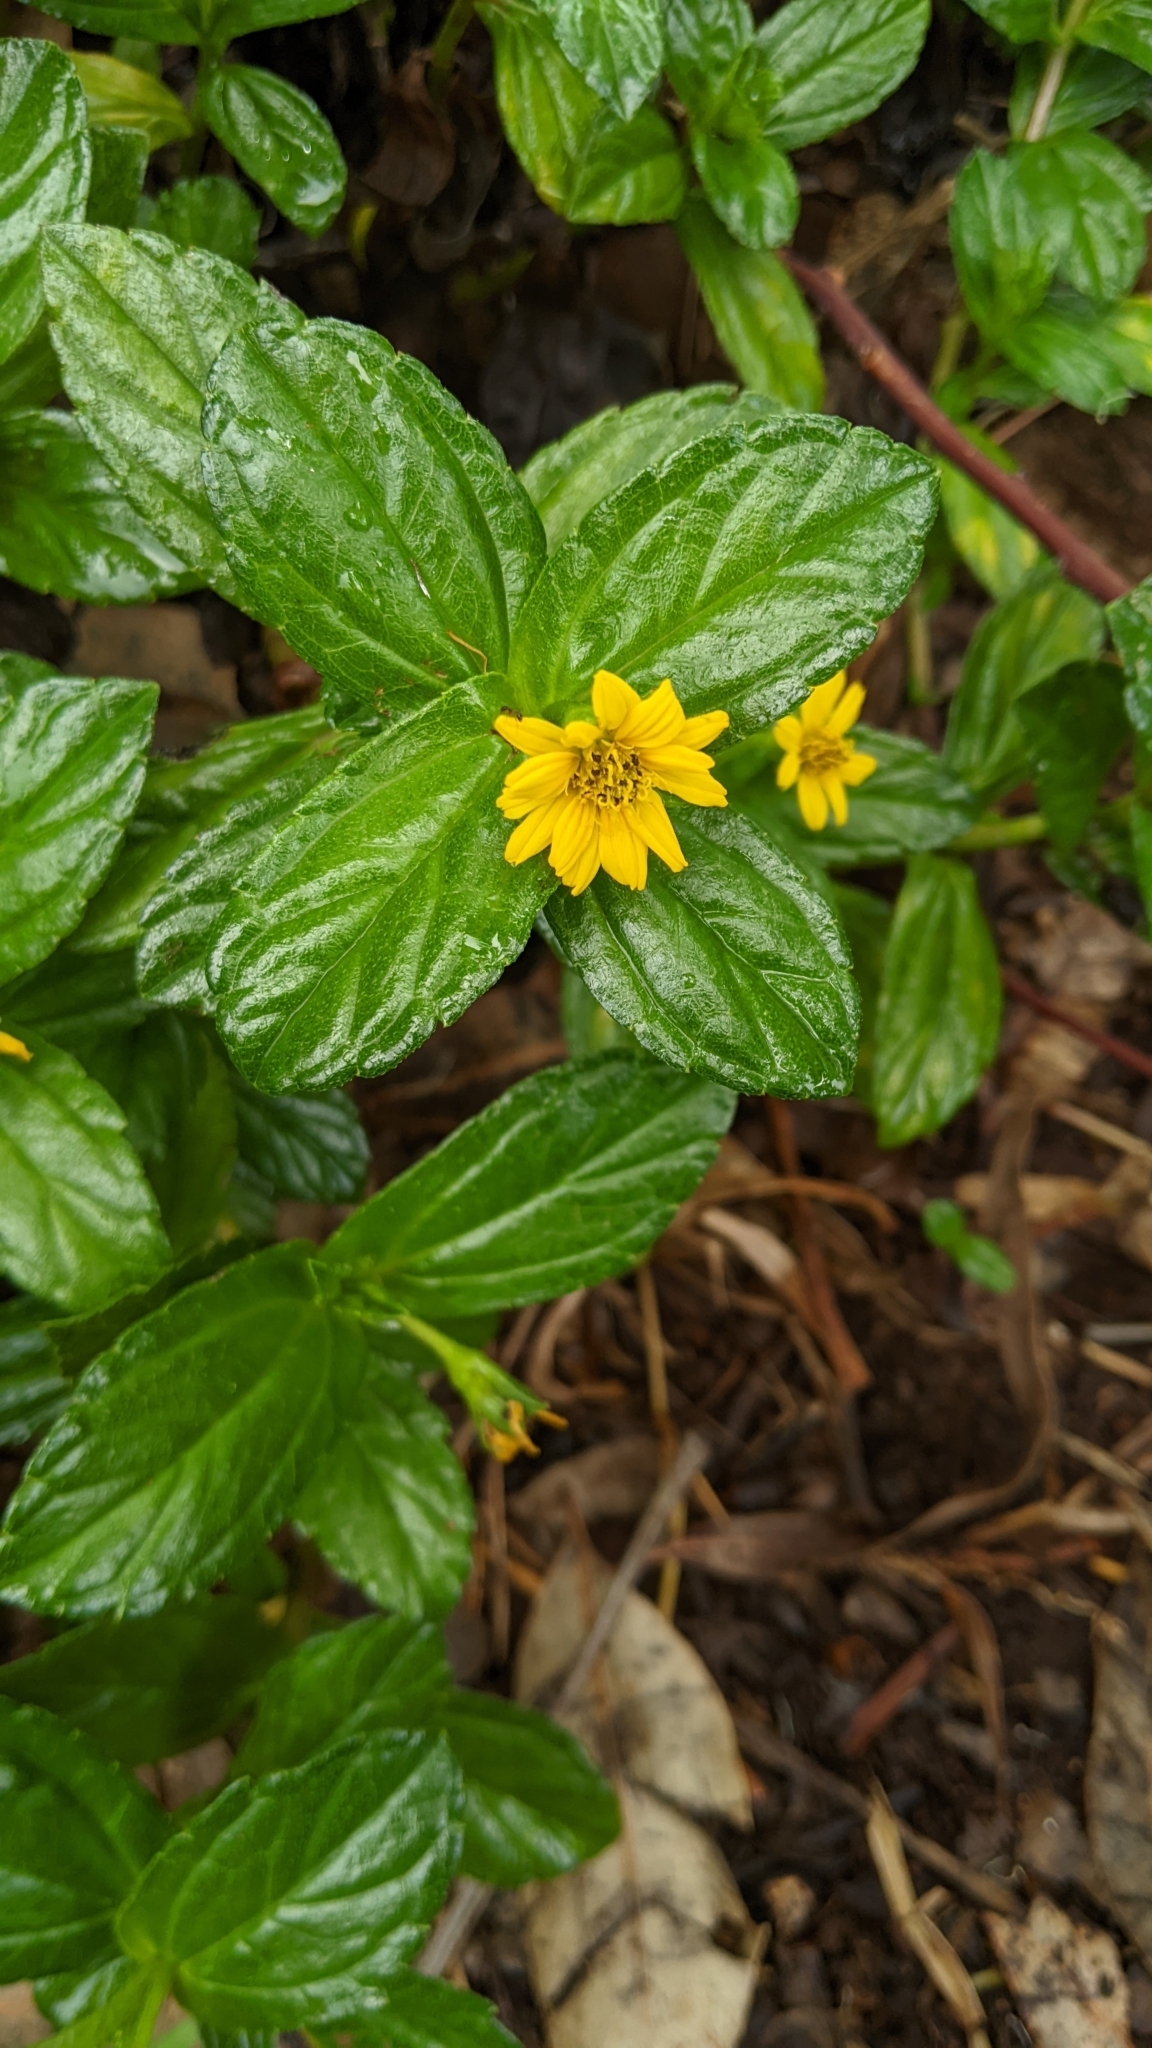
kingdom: Plantae
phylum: Tracheophyta
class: Magnoliopsida
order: Asterales
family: Asteraceae
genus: Sphagneticola
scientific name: Sphagneticola trilobata
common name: Bay biscayne creeping-oxeye
